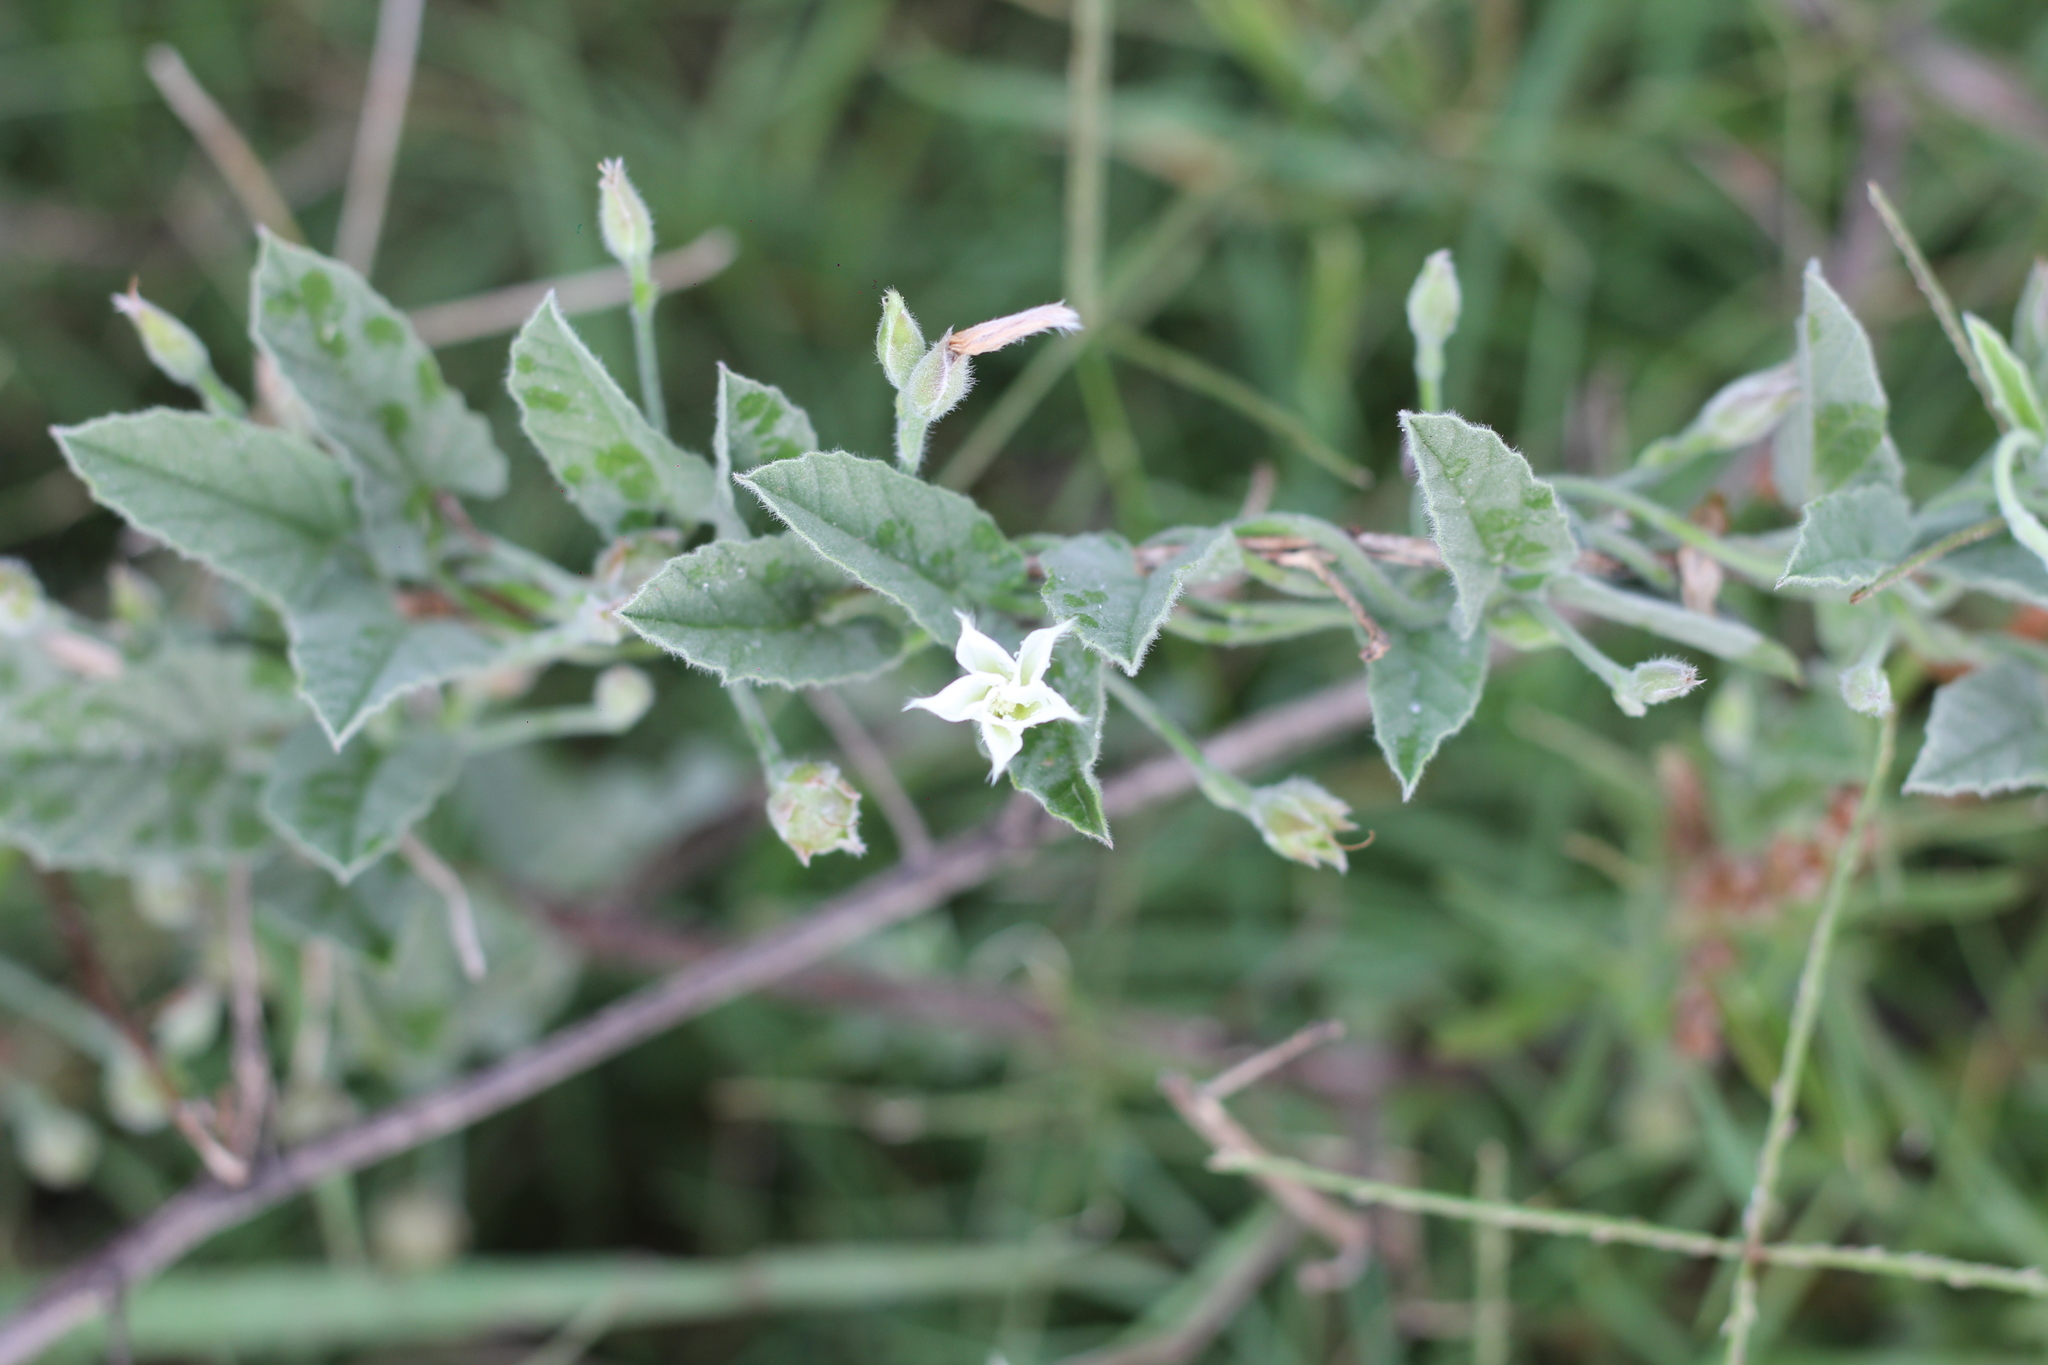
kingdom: Plantae
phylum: Tracheophyta
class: Magnoliopsida
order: Solanales
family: Convolvulaceae
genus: Convolvulus
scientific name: Convolvulus hermanniae
